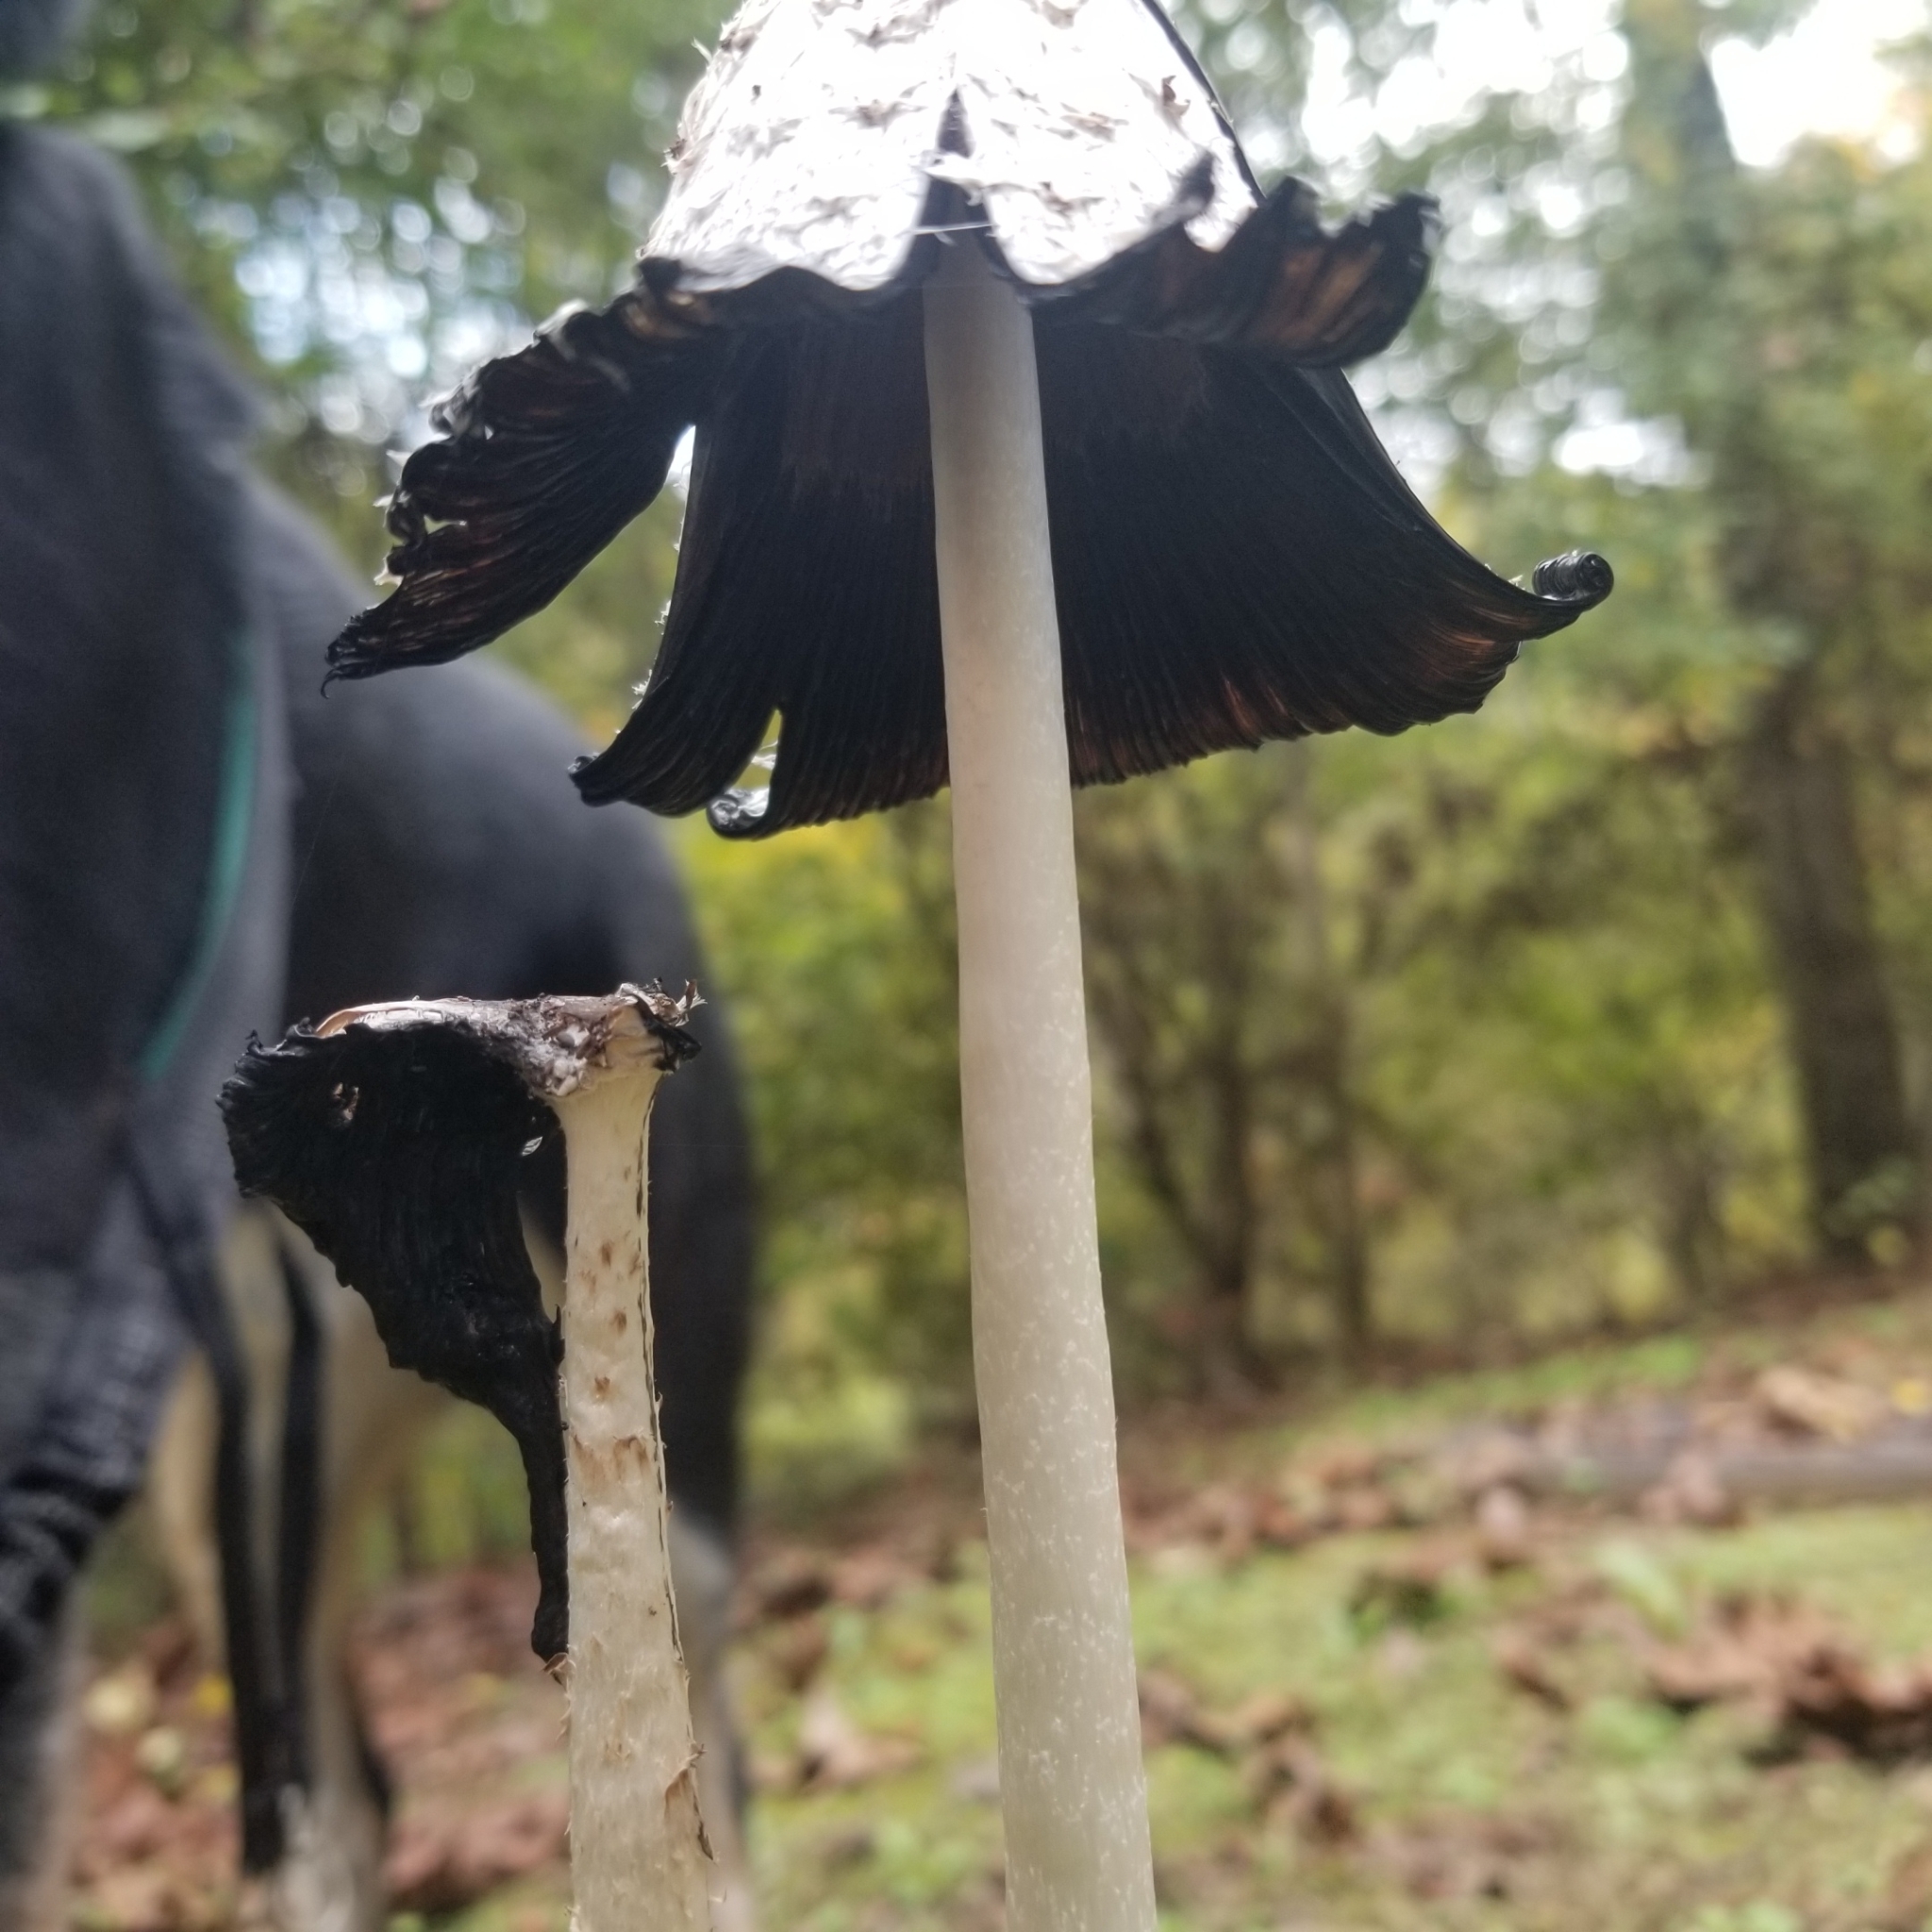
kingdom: Fungi
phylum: Basidiomycota
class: Agaricomycetes
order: Agaricales
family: Agaricaceae
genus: Coprinus
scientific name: Coprinus comatus
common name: Lawyer's wig
